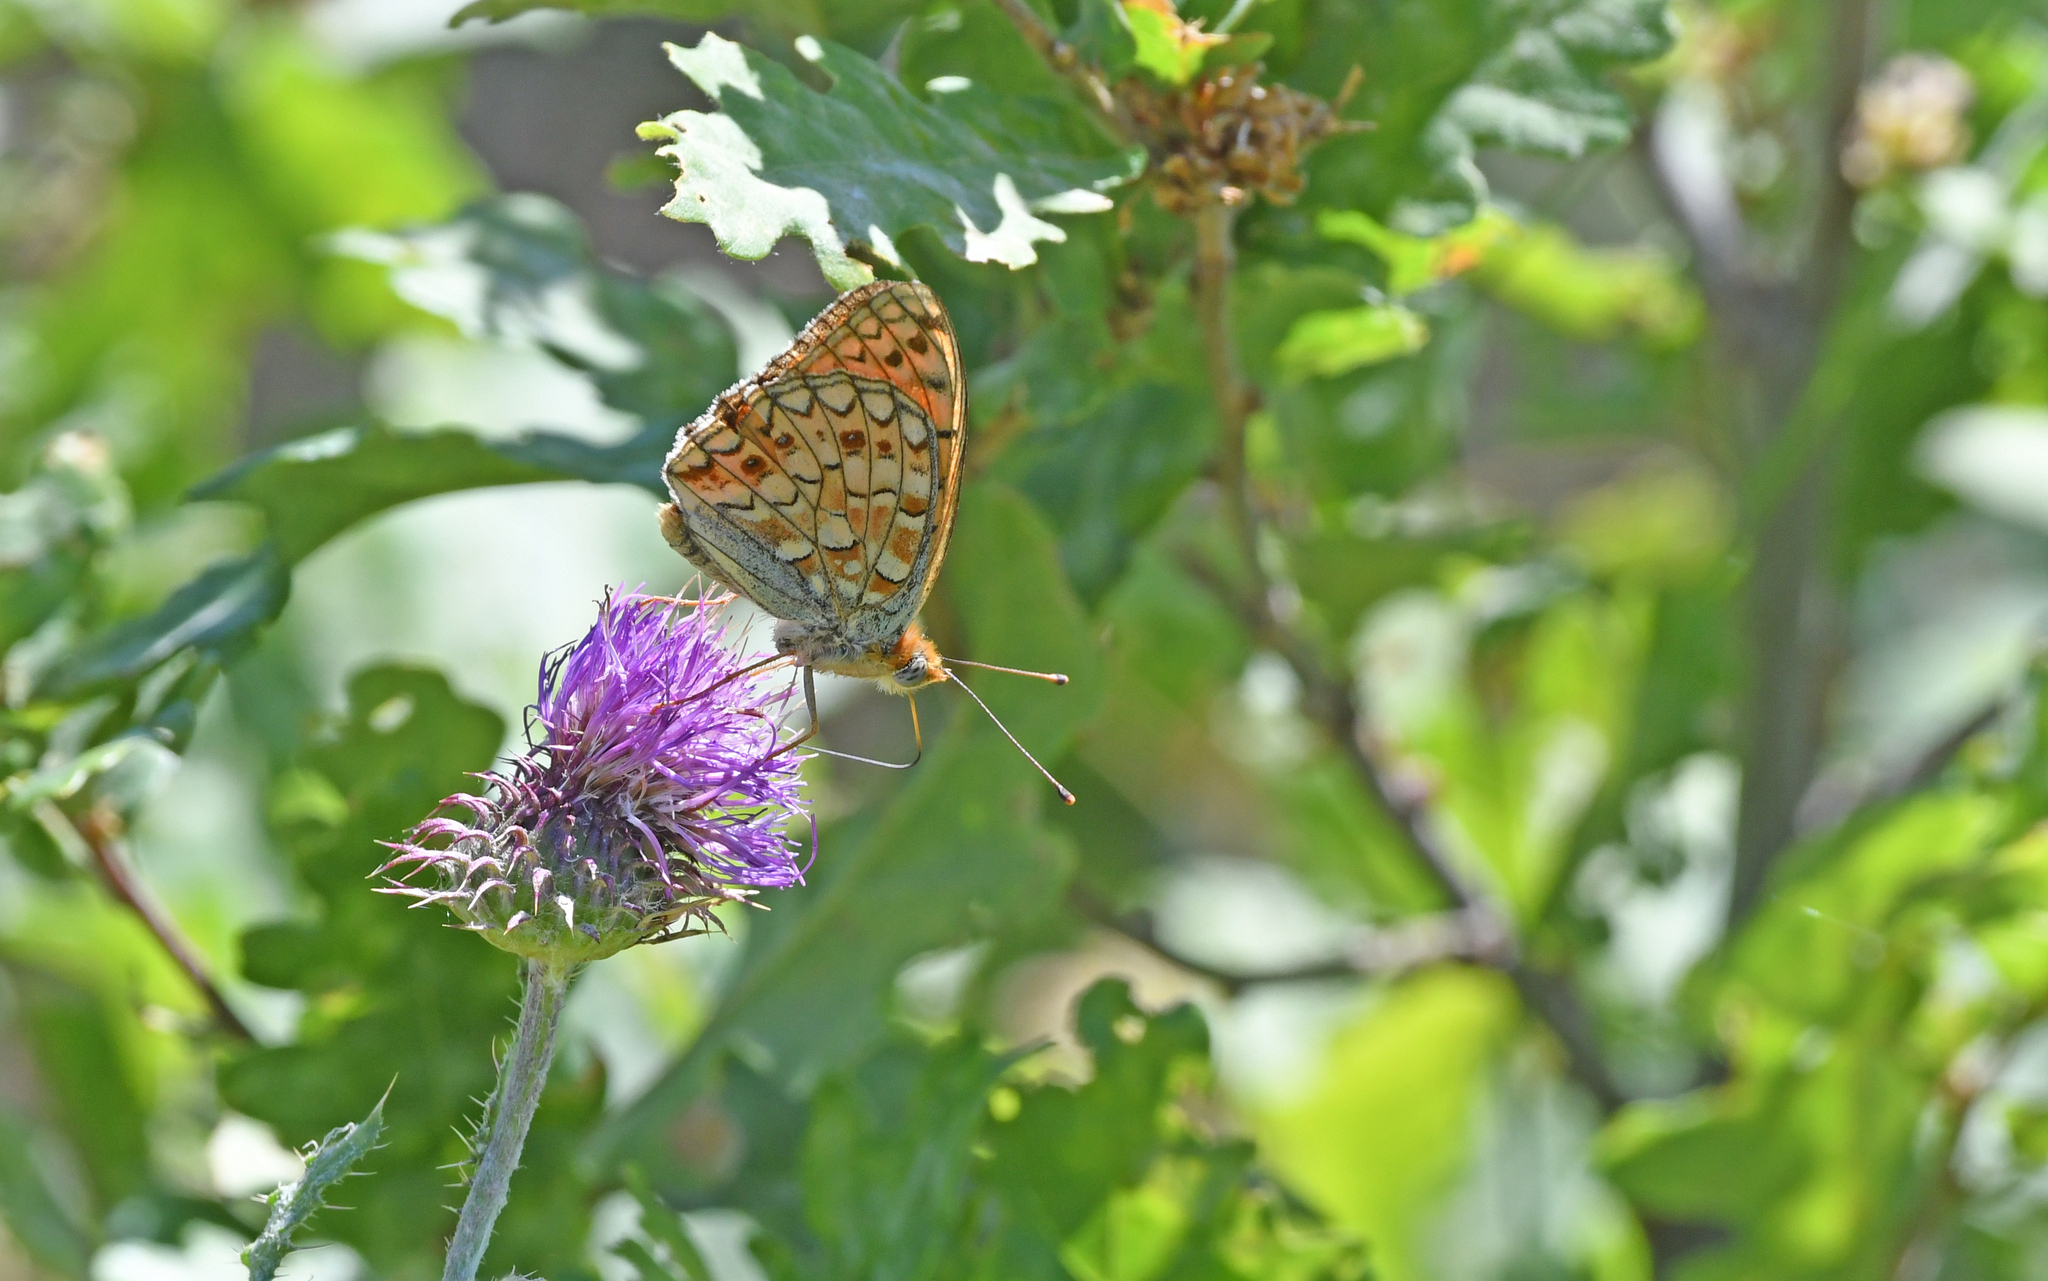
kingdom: Animalia
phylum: Arthropoda
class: Insecta
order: Lepidoptera
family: Nymphalidae
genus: Fabriciana
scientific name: Fabriciana niobe
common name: Niobe fritillary
